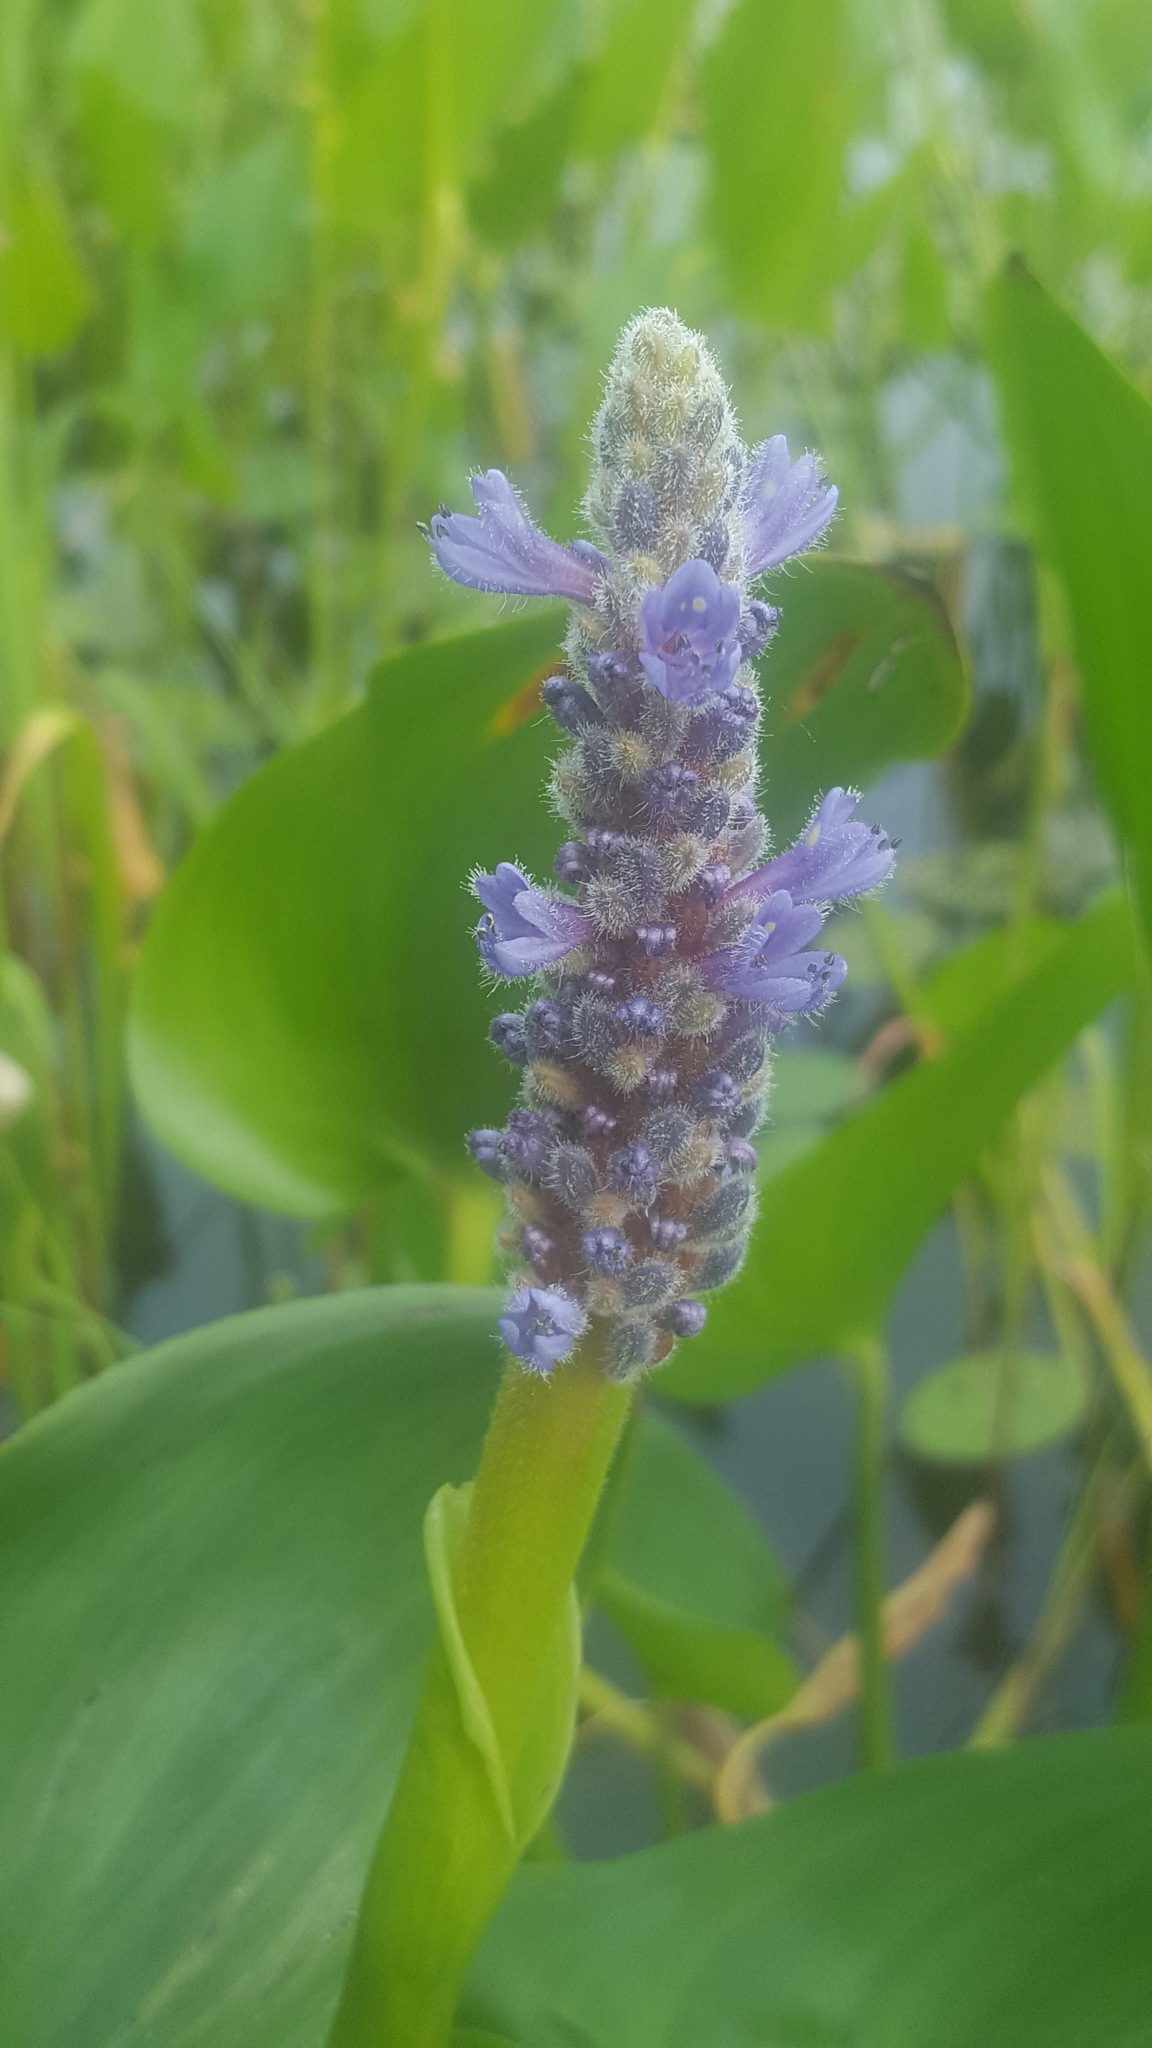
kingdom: Plantae
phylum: Tracheophyta
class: Liliopsida
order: Commelinales
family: Pontederiaceae
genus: Pontederia
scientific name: Pontederia cordata
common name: Pickerelweed
